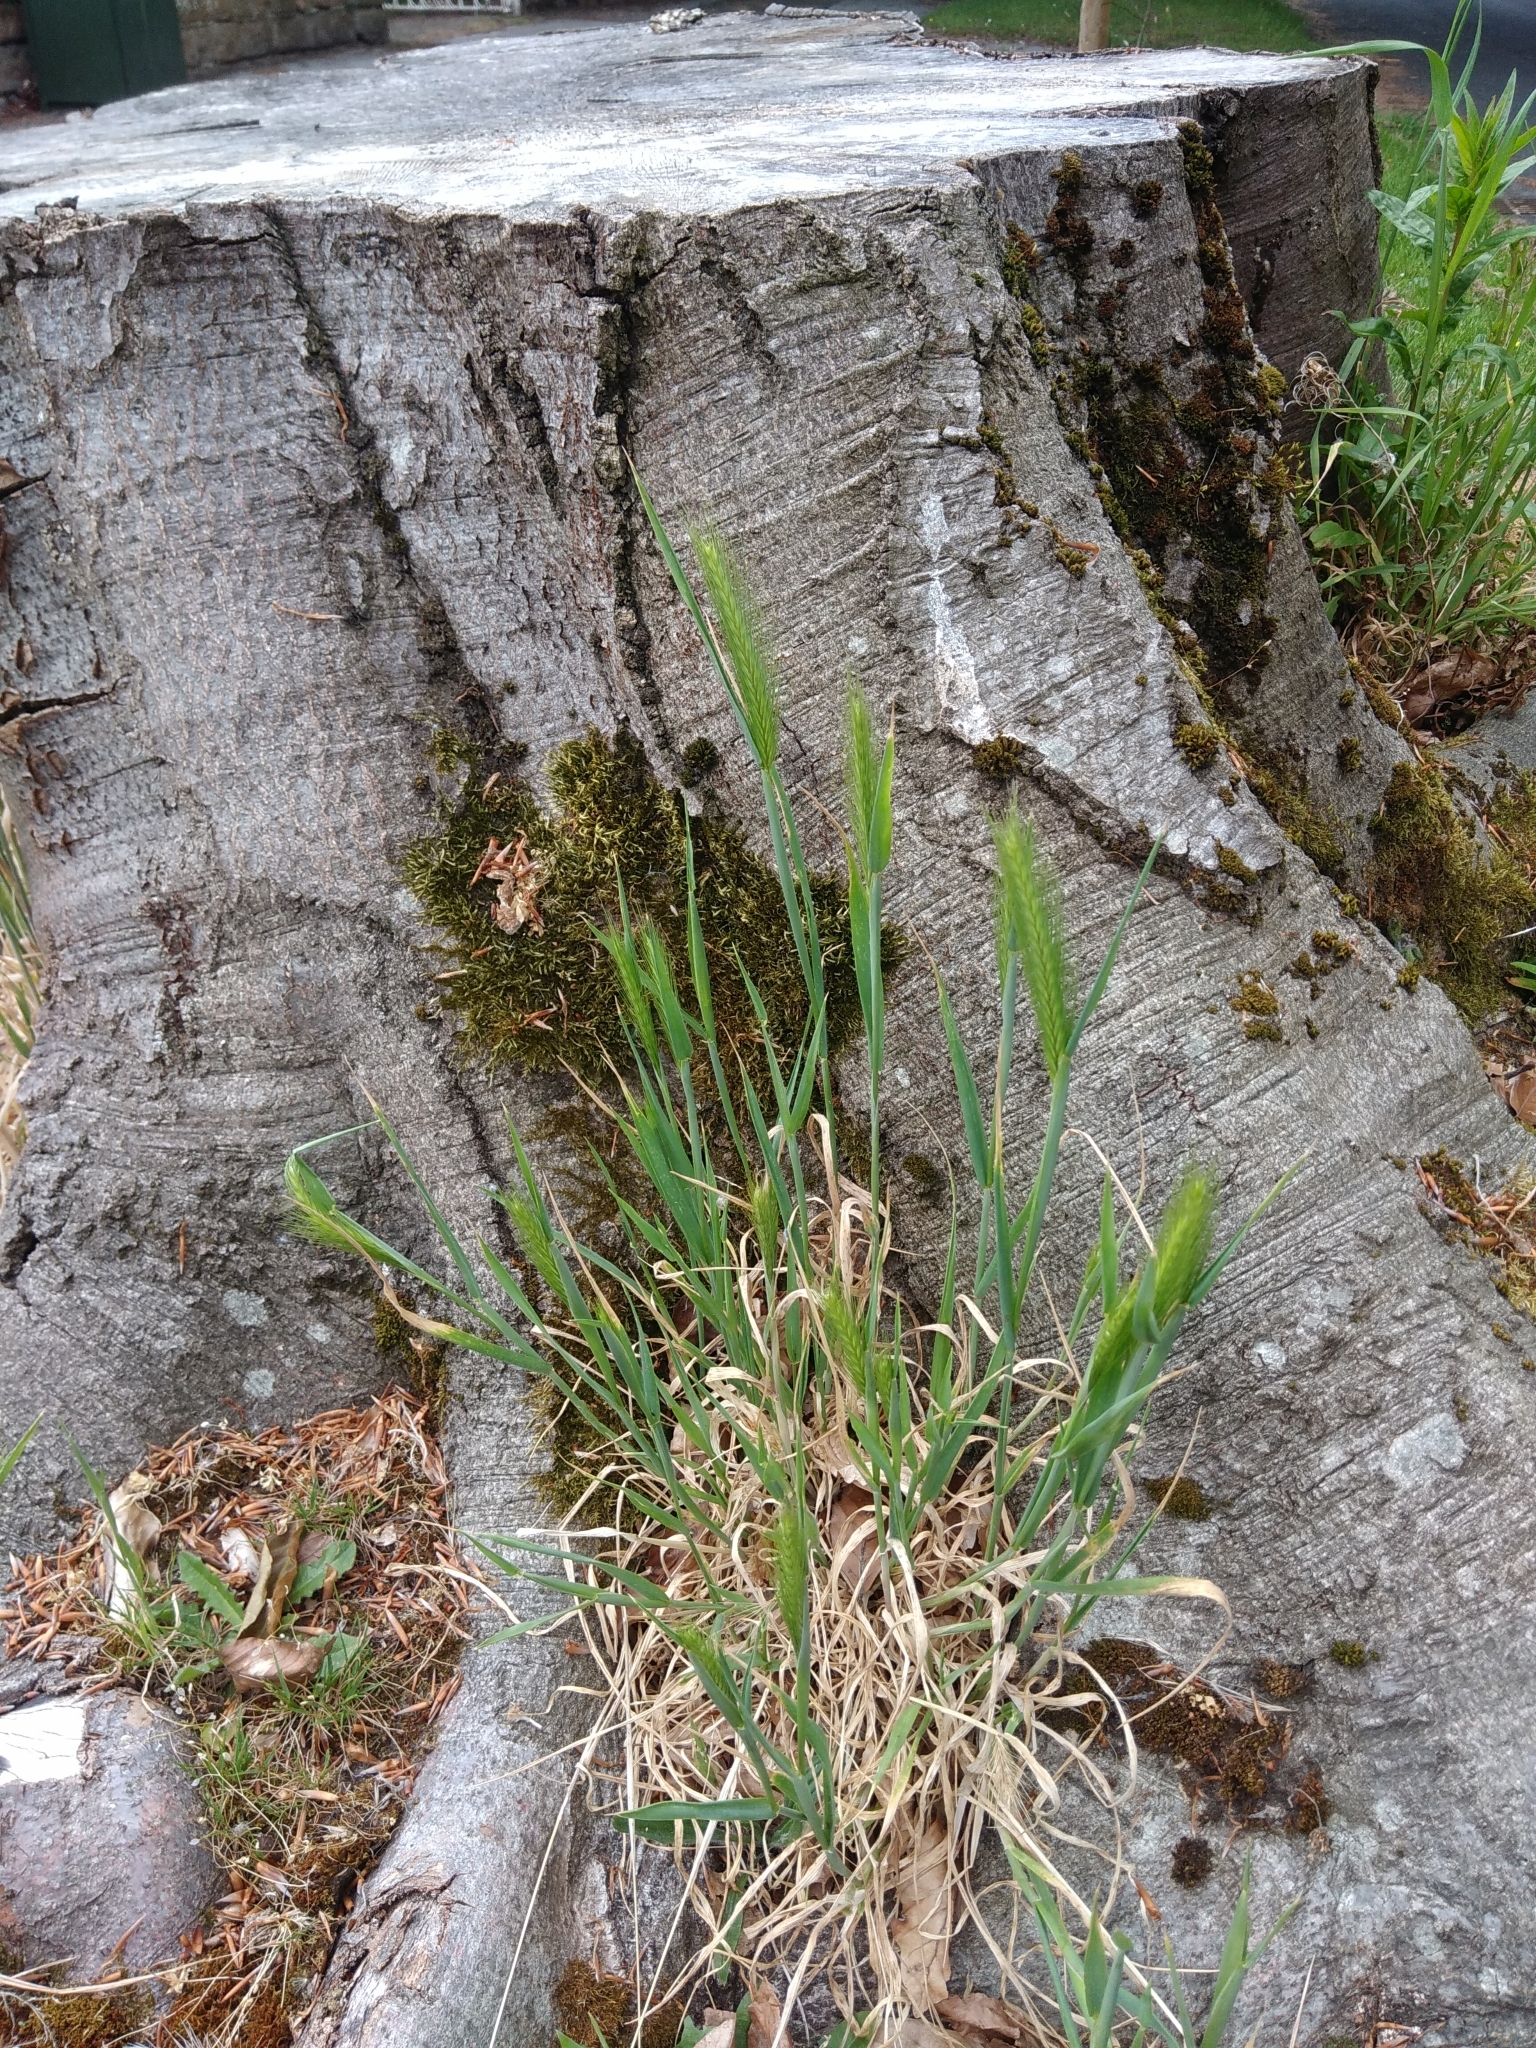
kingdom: Plantae
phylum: Tracheophyta
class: Liliopsida
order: Poales
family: Poaceae
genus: Hordeum
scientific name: Hordeum murinum
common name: Wall barley
